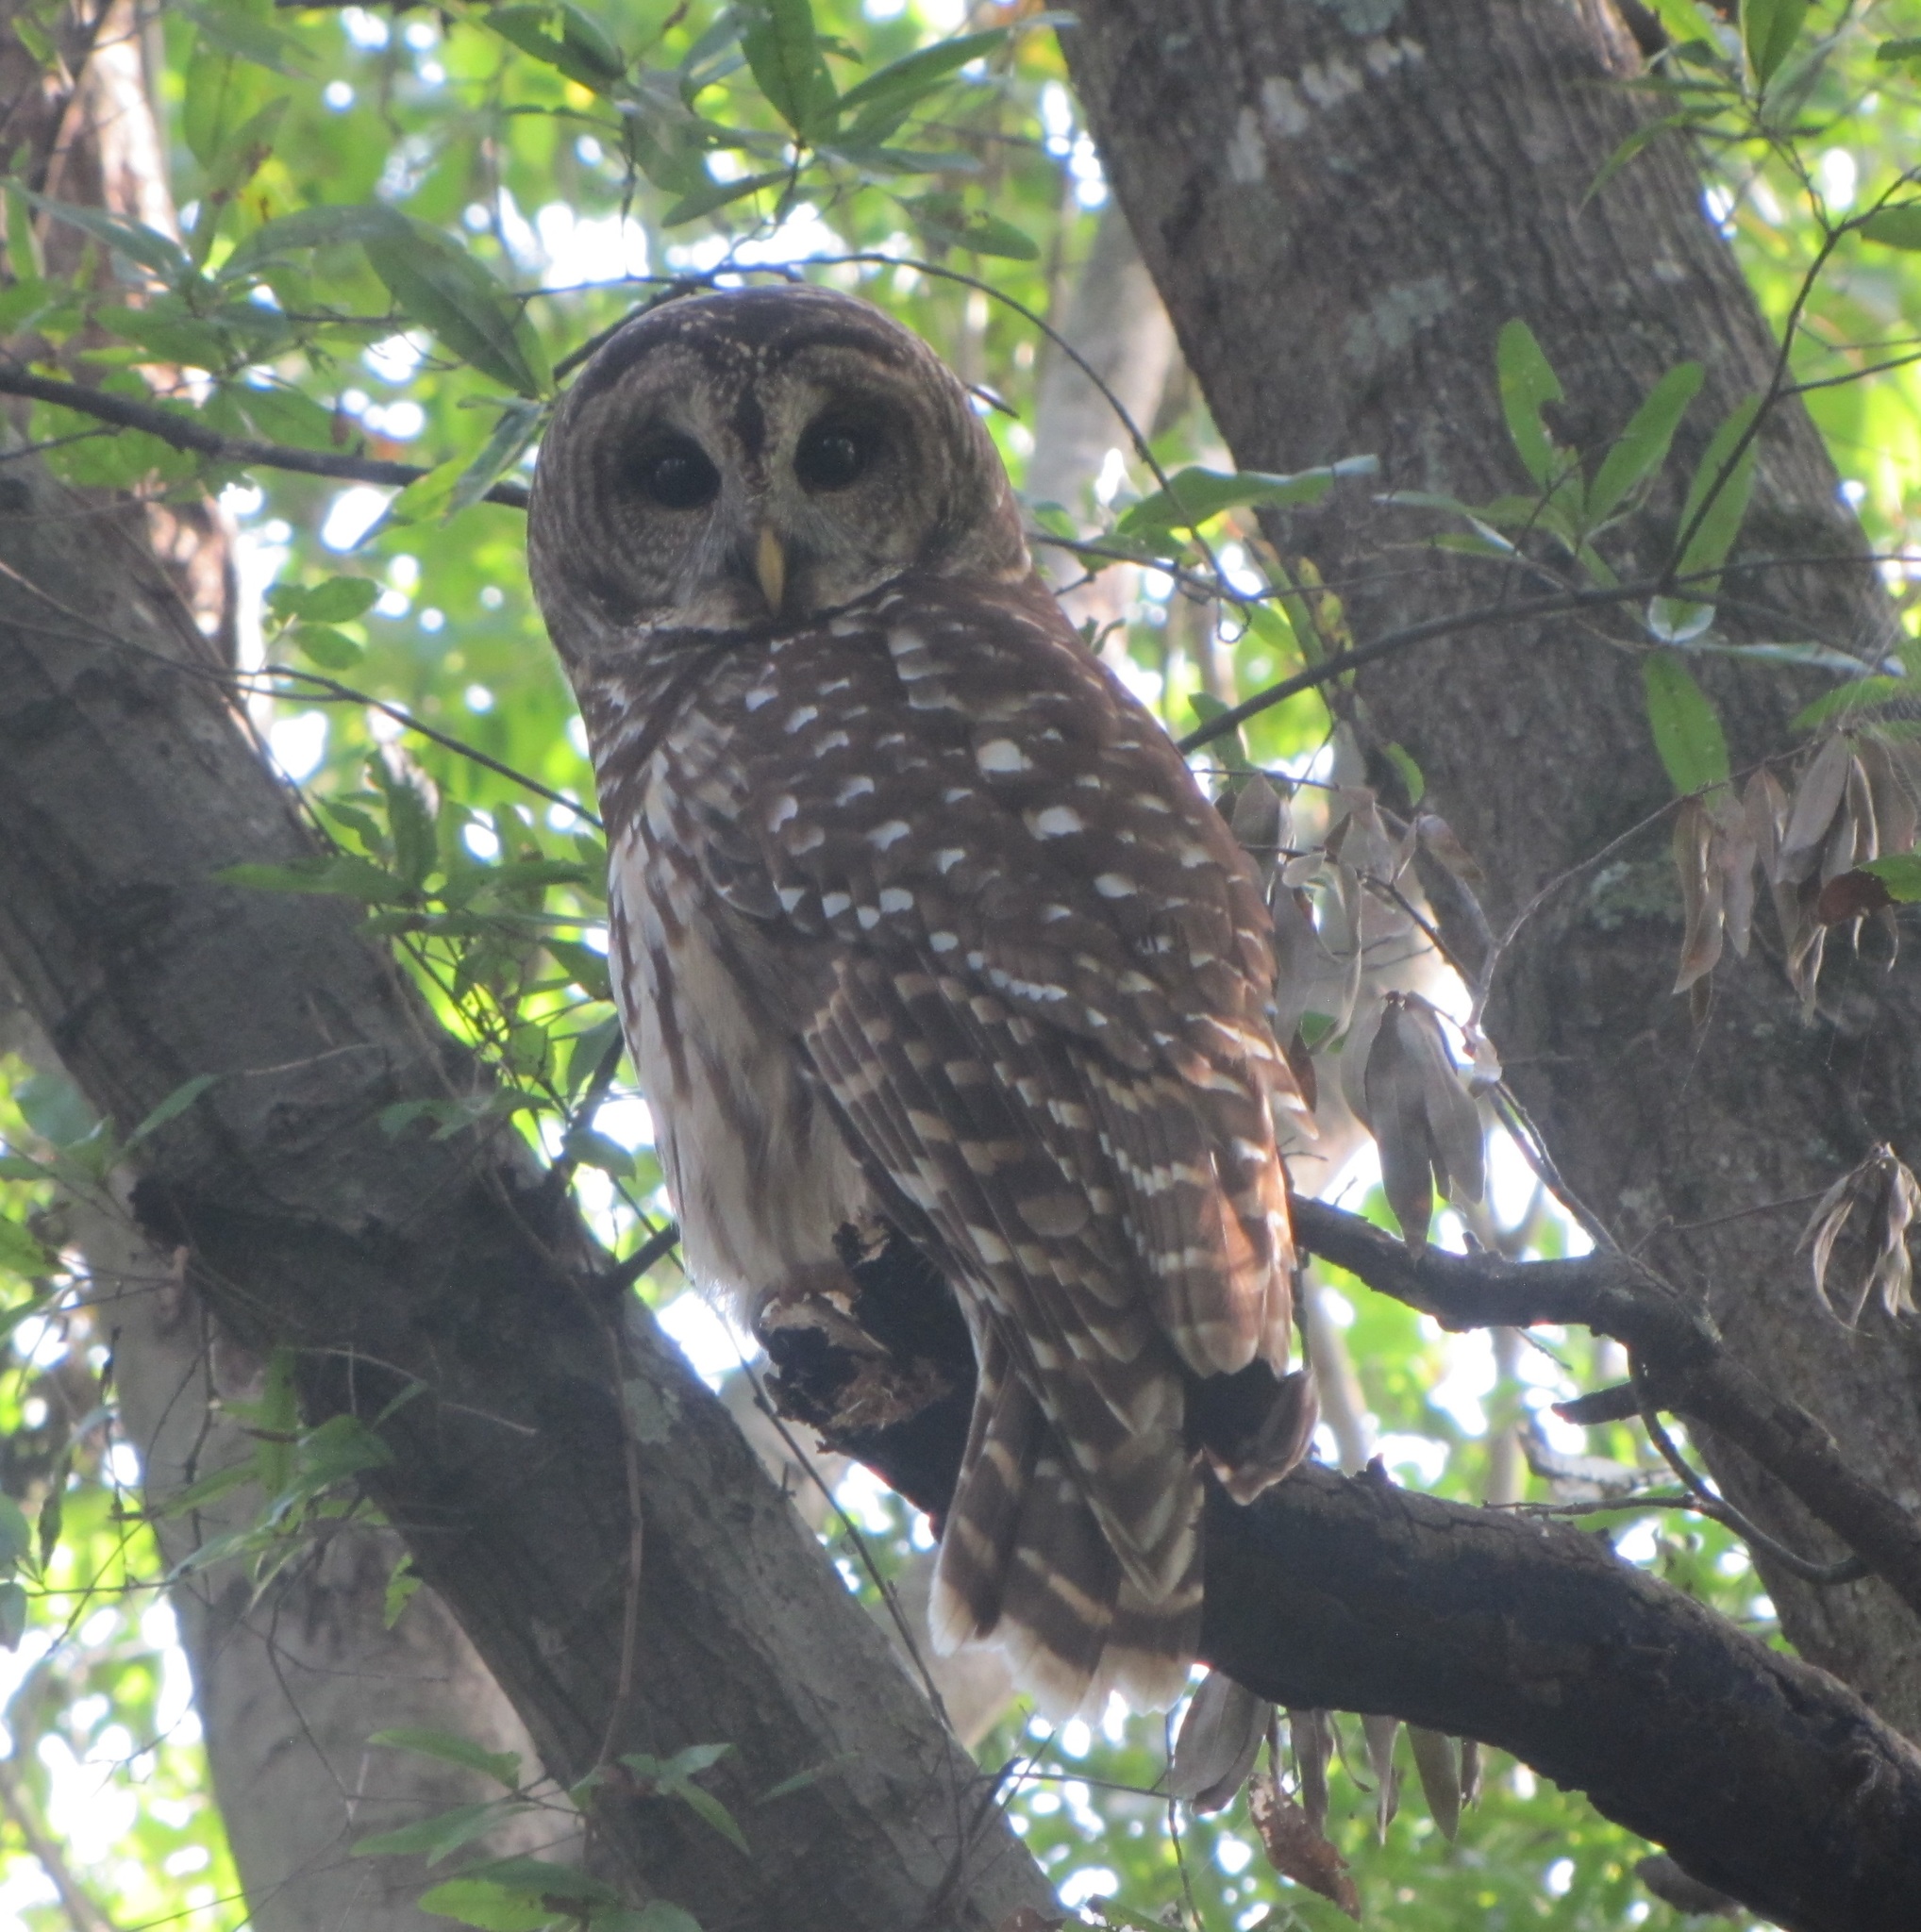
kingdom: Animalia
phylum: Chordata
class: Aves
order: Strigiformes
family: Strigidae
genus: Strix
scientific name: Strix varia
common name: Barred owl
